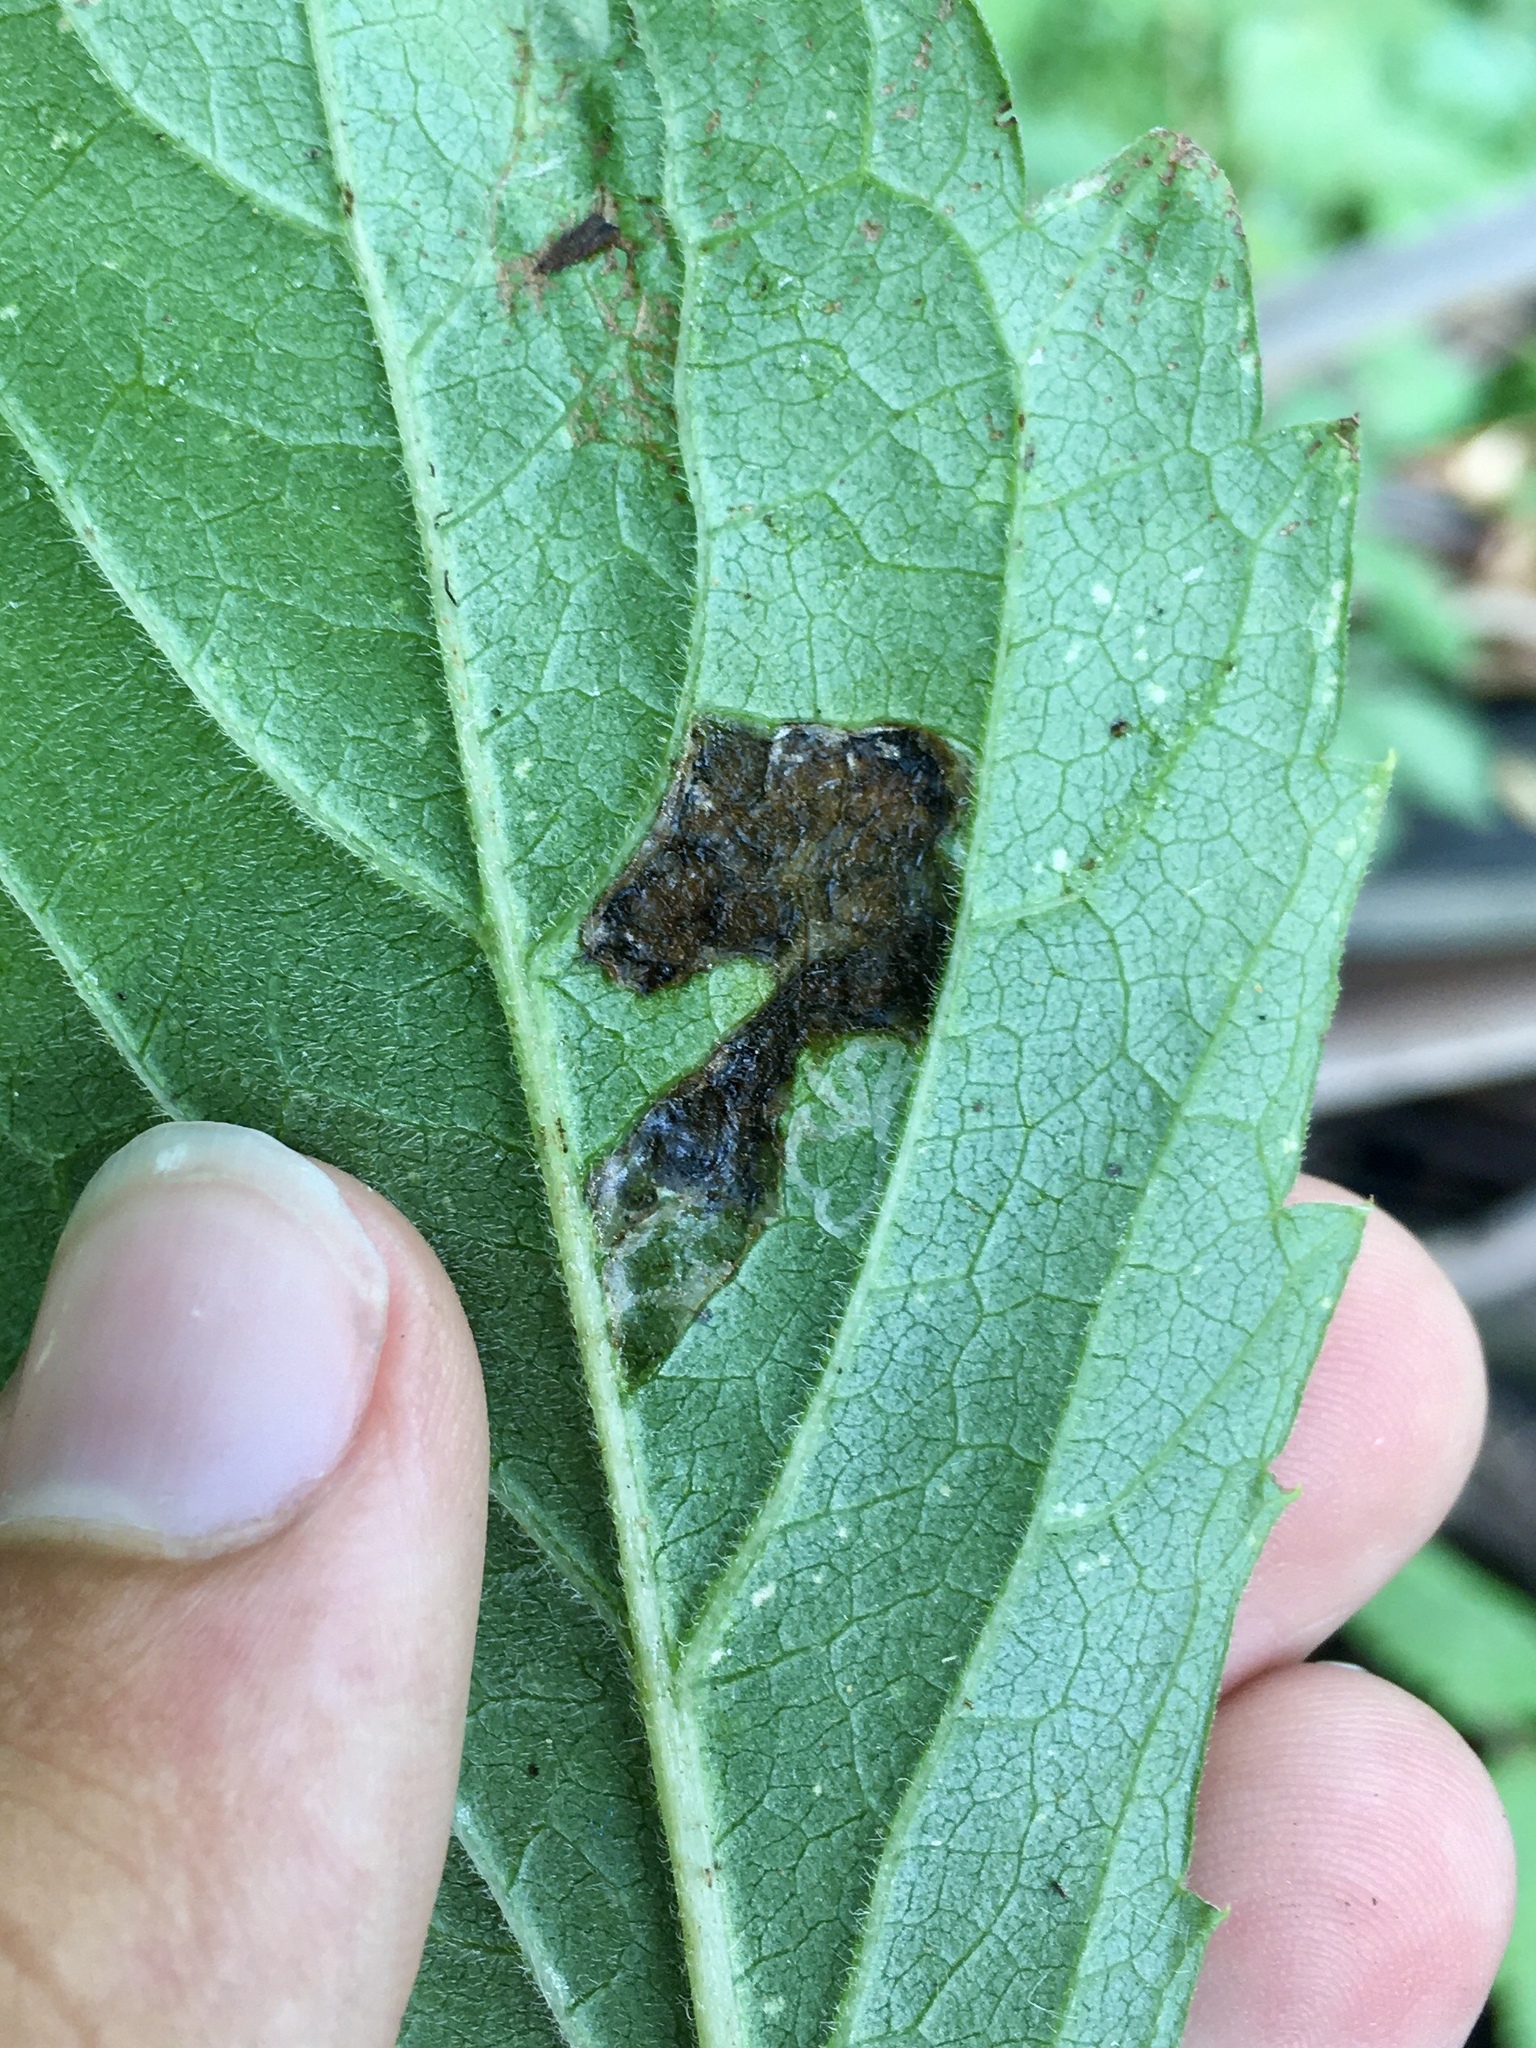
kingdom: Animalia
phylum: Arthropoda
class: Insecta
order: Lepidoptera
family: Gracillariidae
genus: Phyllocnistis
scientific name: Phyllocnistis ampelopsiella
